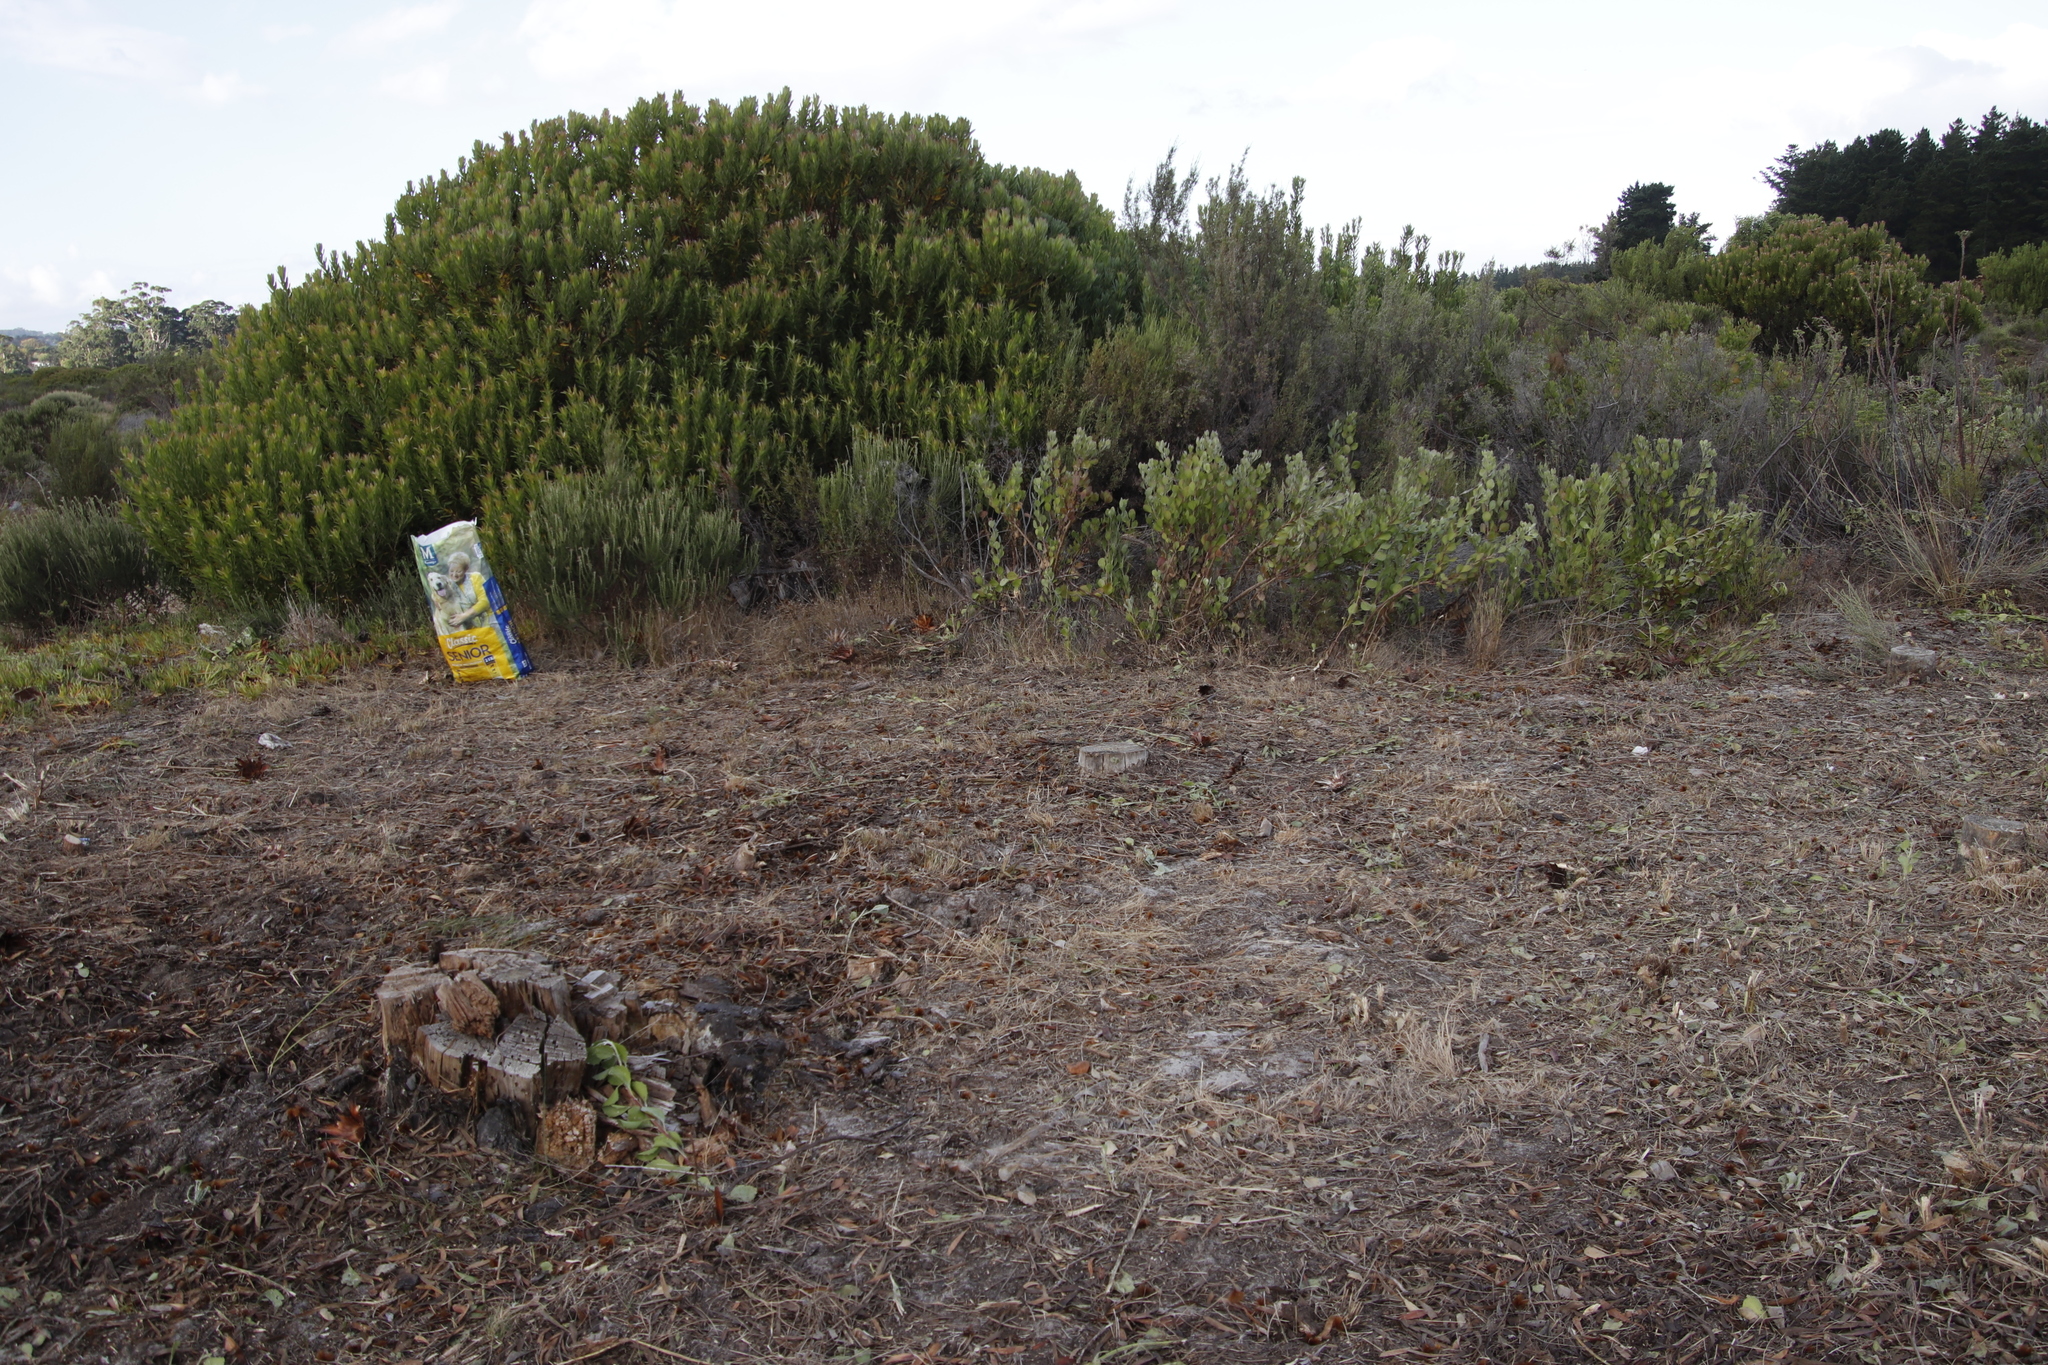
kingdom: Plantae
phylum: Tracheophyta
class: Pinopsida
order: Pinales
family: Pinaceae
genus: Pinus
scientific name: Pinus radiata
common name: Monterey pine
